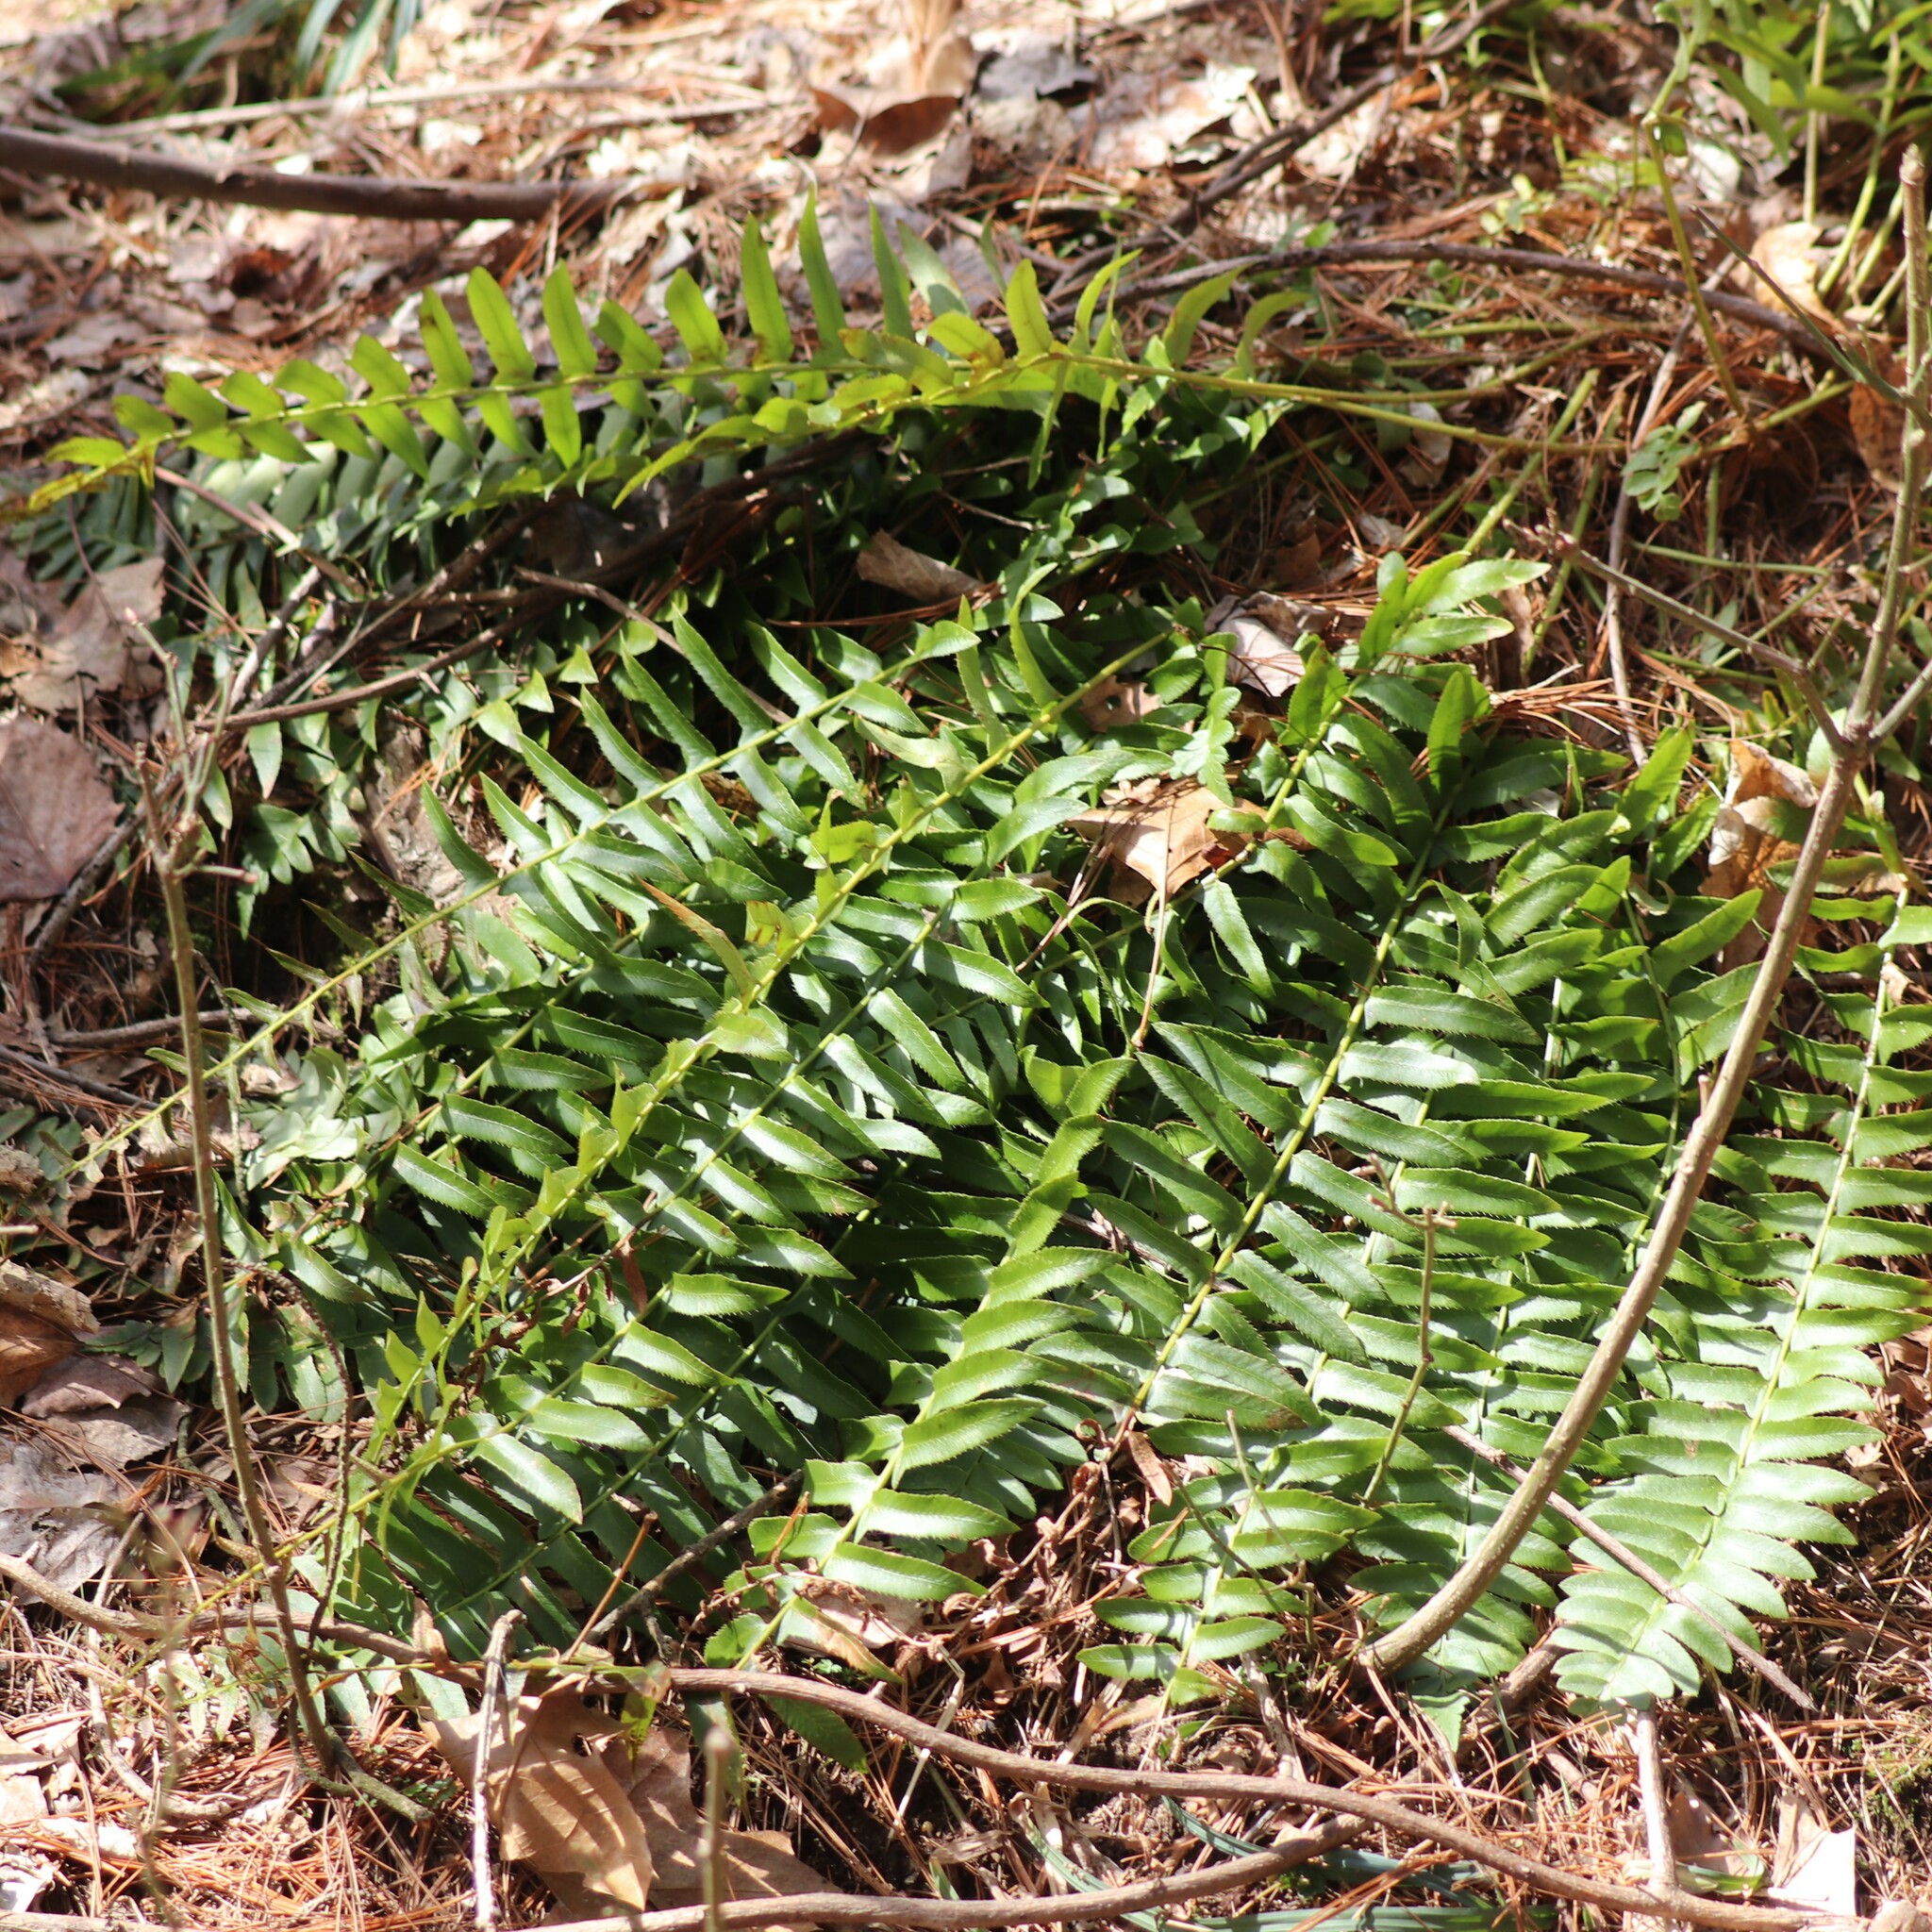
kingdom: Plantae
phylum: Tracheophyta
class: Polypodiopsida
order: Polypodiales
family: Dryopteridaceae
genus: Polystichum
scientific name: Polystichum acrostichoides
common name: Christmas fern
